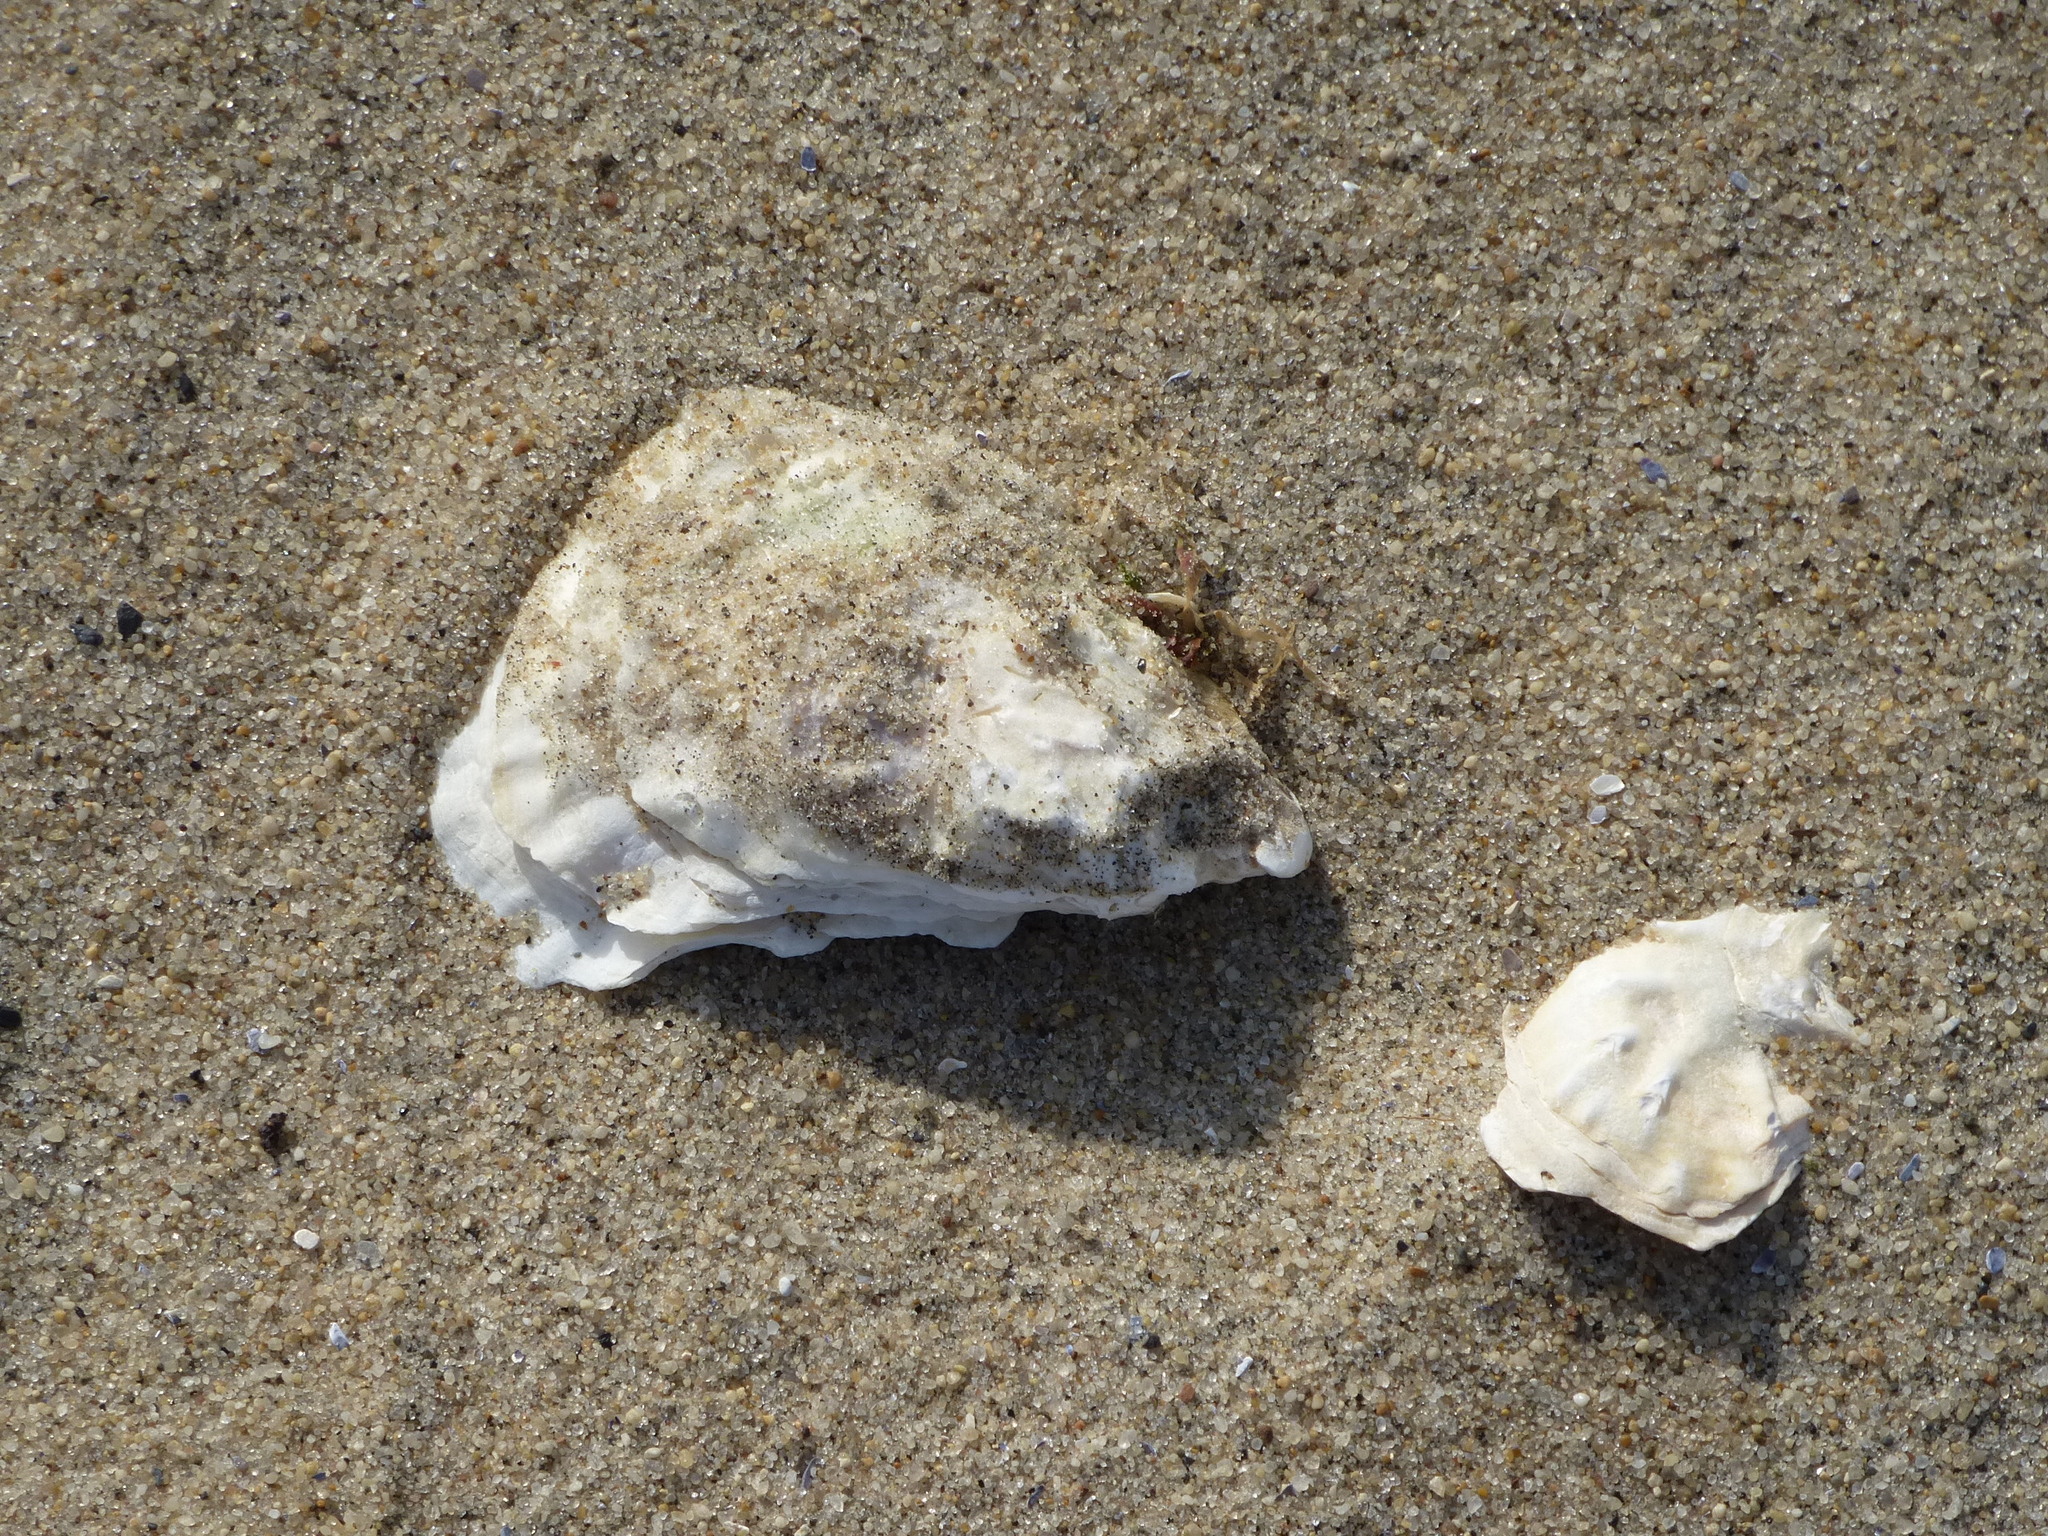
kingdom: Animalia
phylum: Mollusca
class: Bivalvia
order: Ostreida
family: Ostreidae
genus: Crassostrea
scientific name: Crassostrea virginica
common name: American oyster
